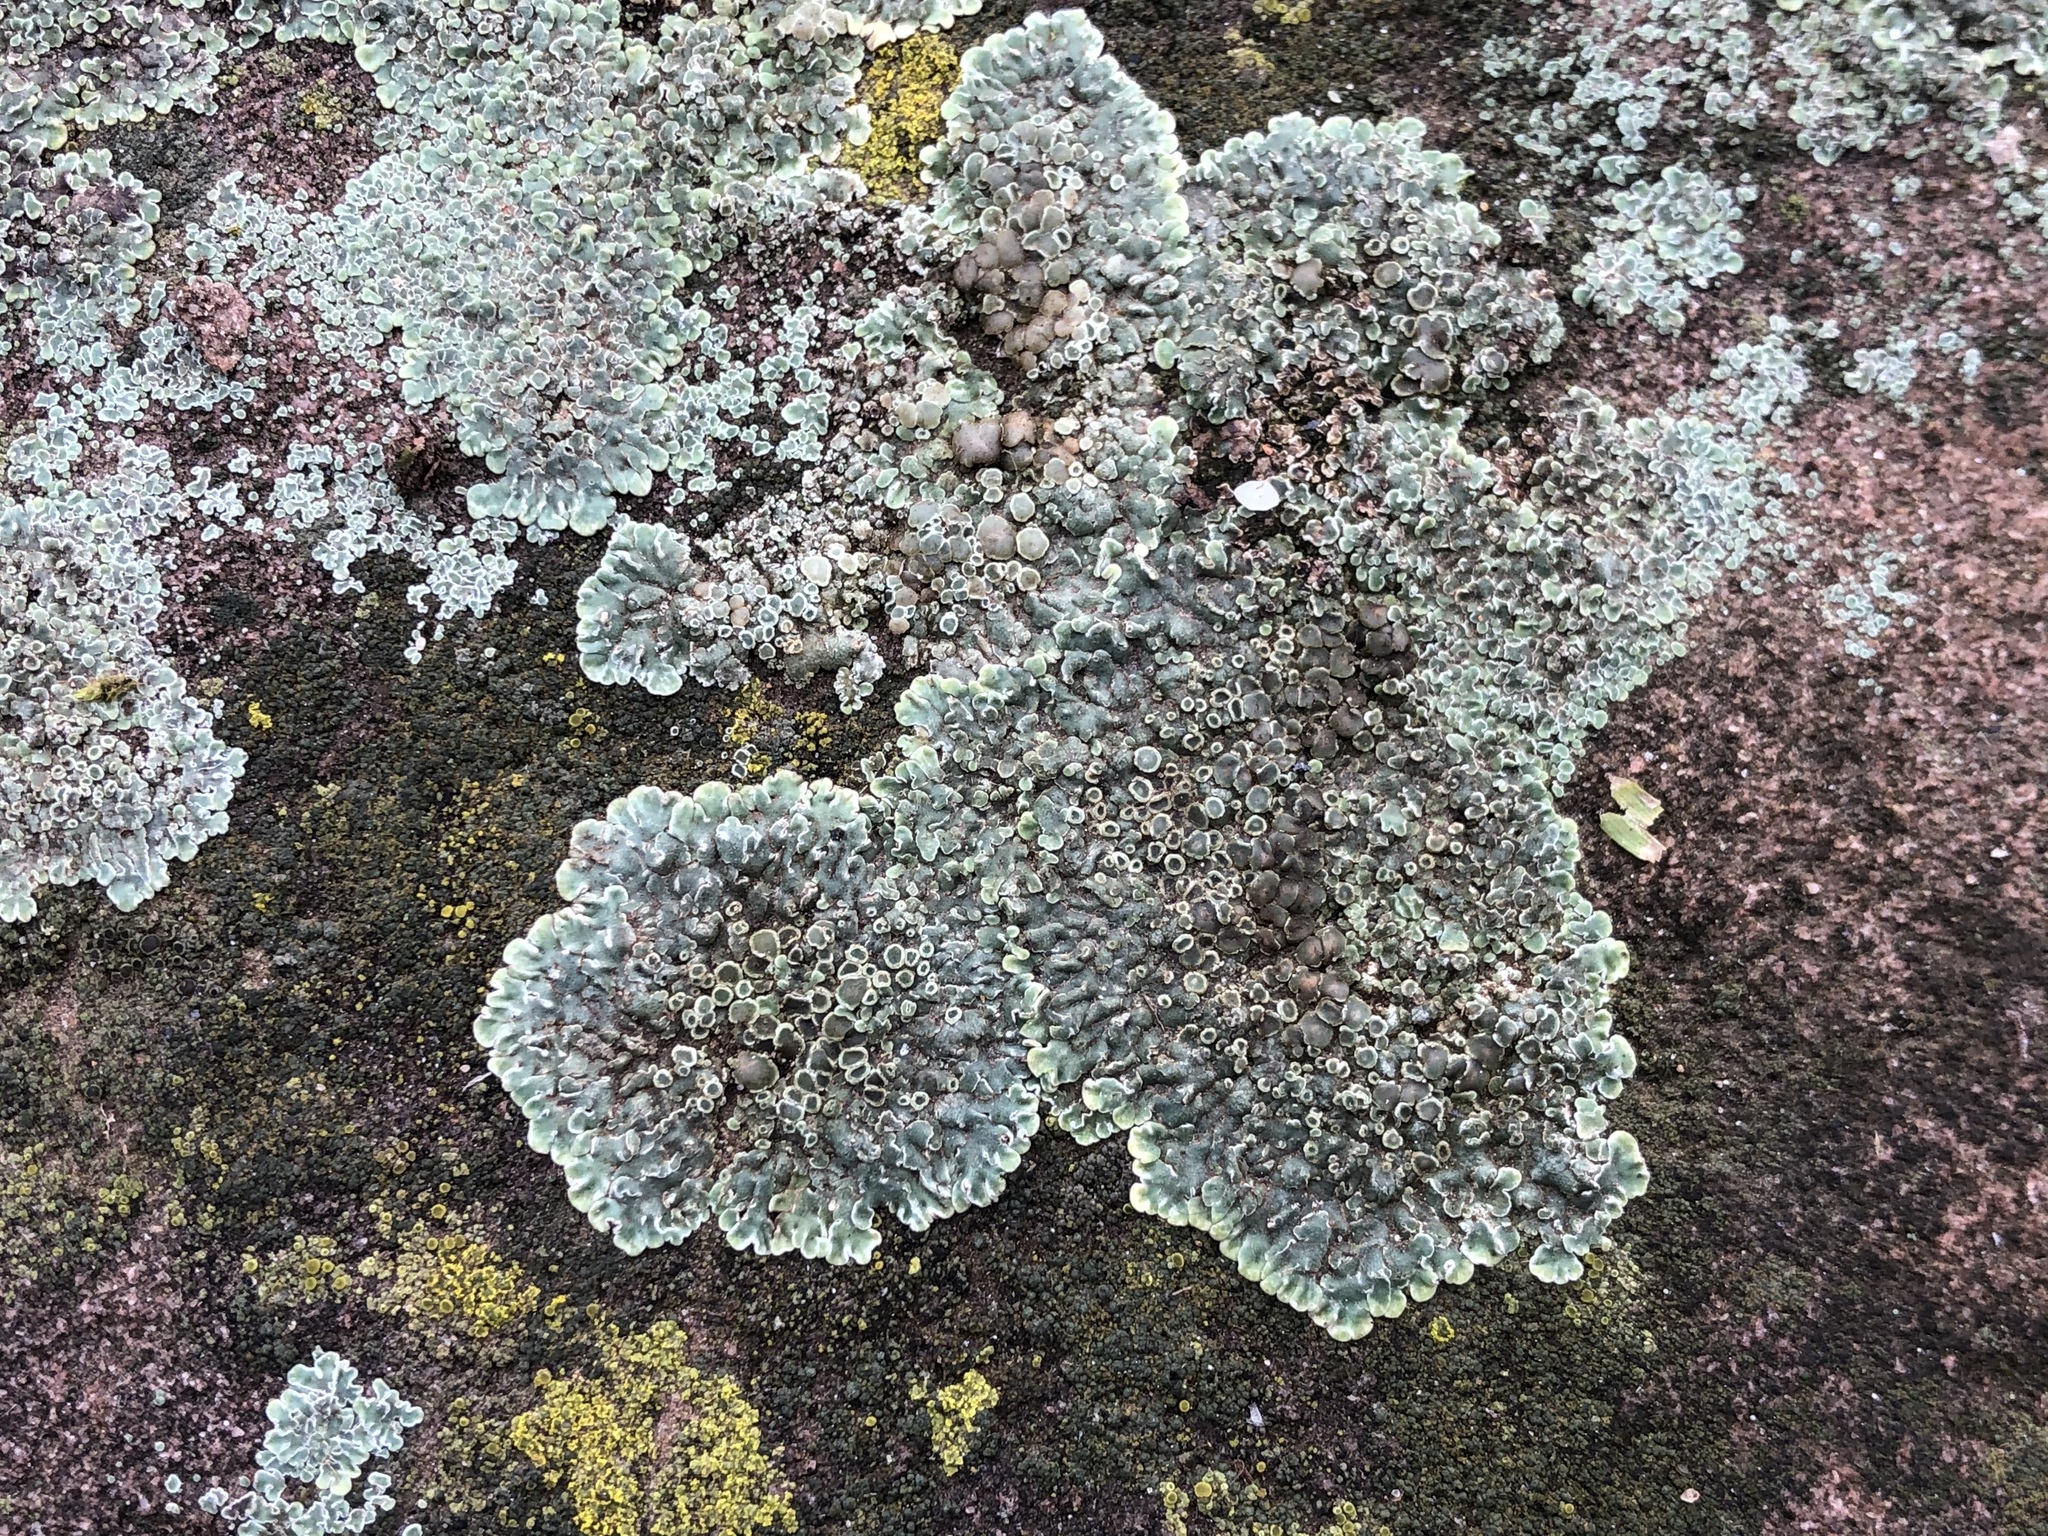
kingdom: Fungi
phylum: Ascomycota
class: Lecanoromycetes
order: Lecanorales
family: Lecanoraceae
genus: Protoparmeliopsis
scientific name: Protoparmeliopsis muralis
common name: Stonewall rim lichen
